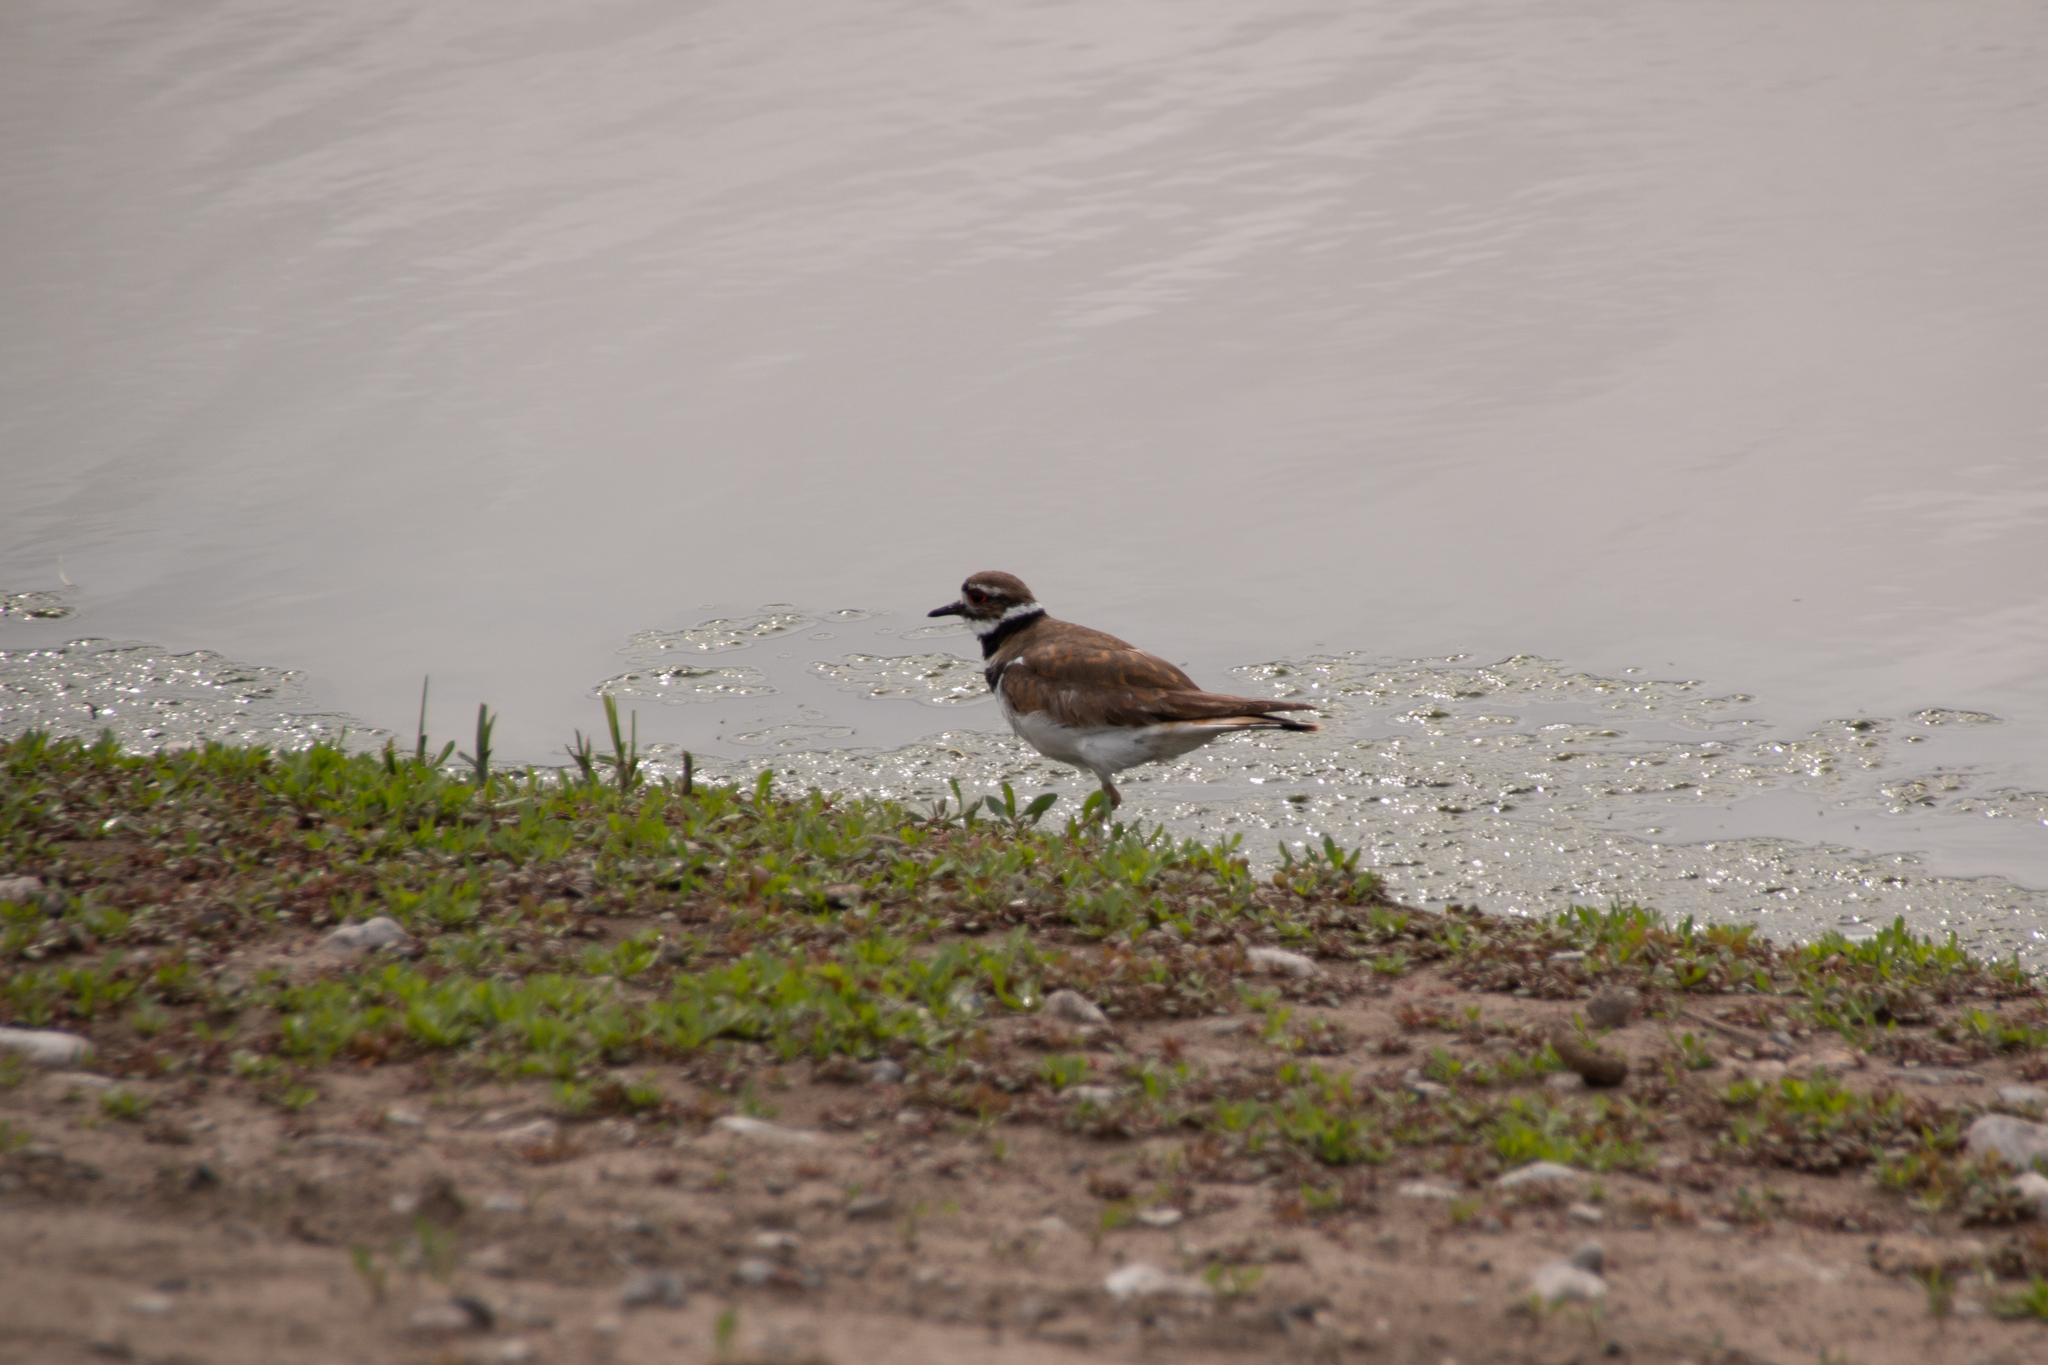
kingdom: Animalia
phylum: Chordata
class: Aves
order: Charadriiformes
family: Charadriidae
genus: Charadrius
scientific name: Charadrius vociferus
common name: Killdeer
